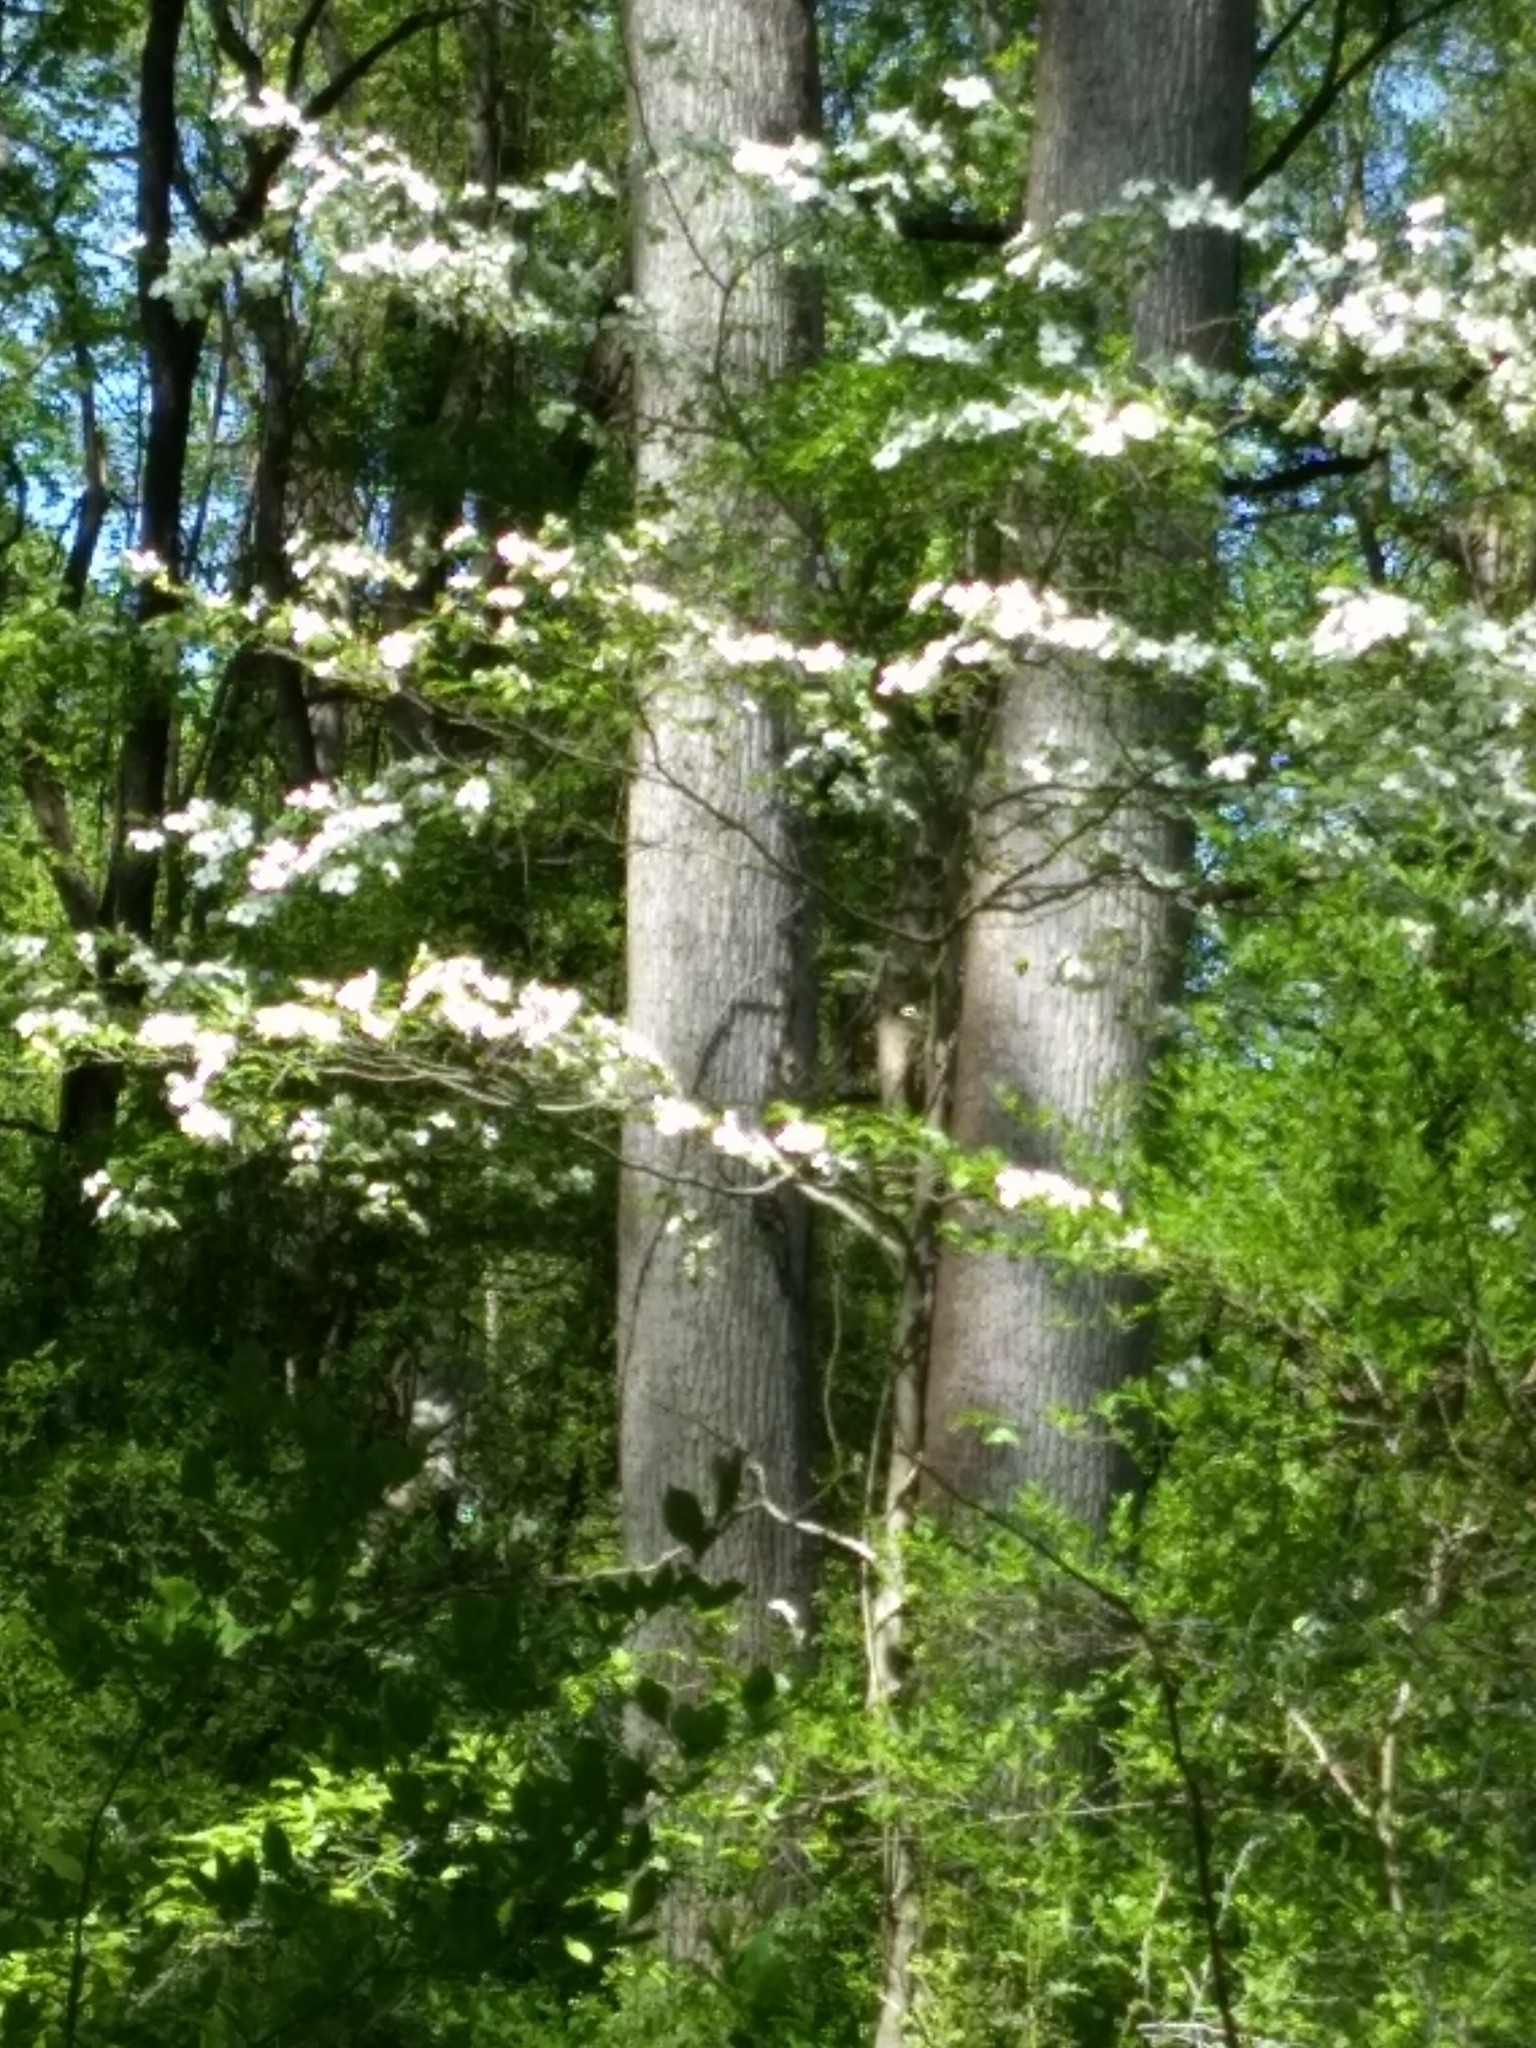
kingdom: Plantae
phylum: Tracheophyta
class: Magnoliopsida
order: Cornales
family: Cornaceae
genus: Cornus
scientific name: Cornus florida
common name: Flowering dogwood
